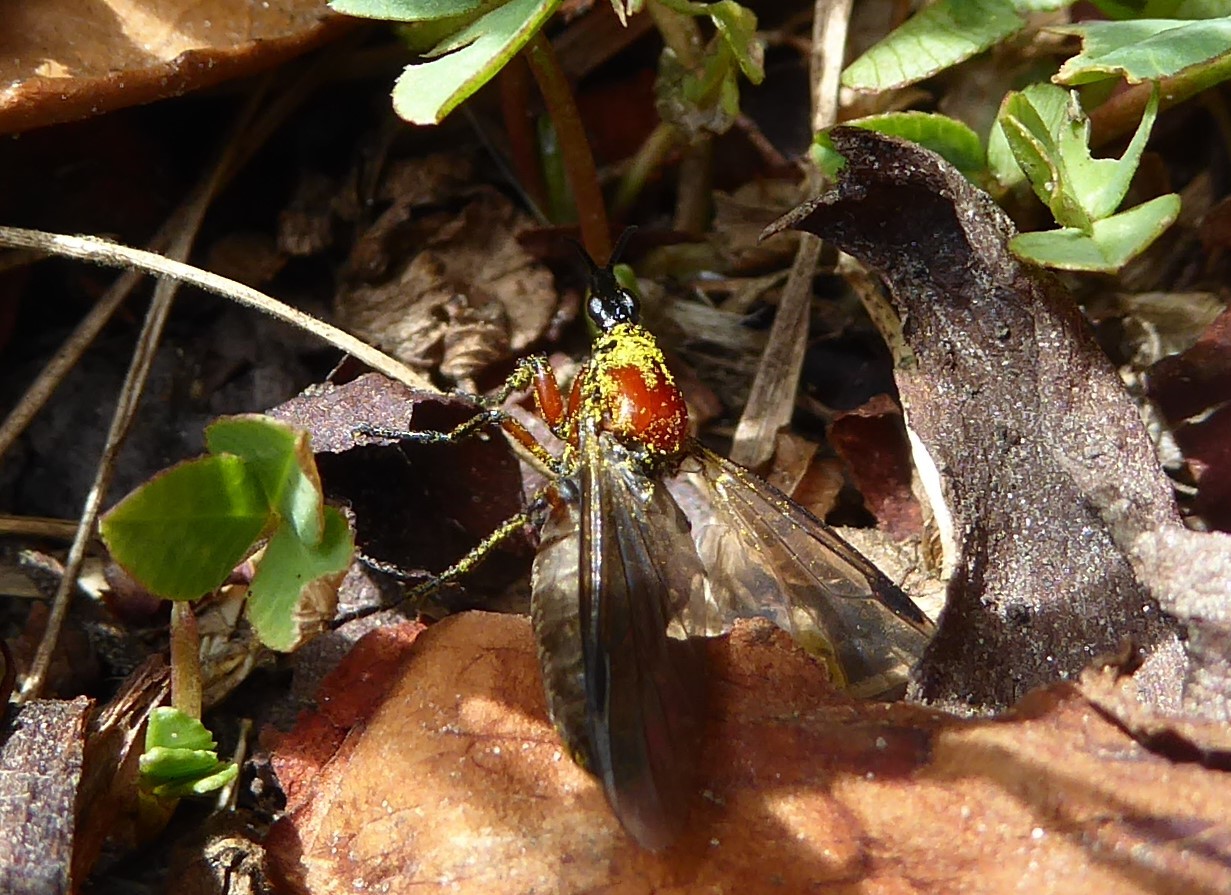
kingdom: Animalia
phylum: Arthropoda
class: Insecta
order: Diptera
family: Bibionidae
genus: Dilophus
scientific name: Dilophus nigrostigma
